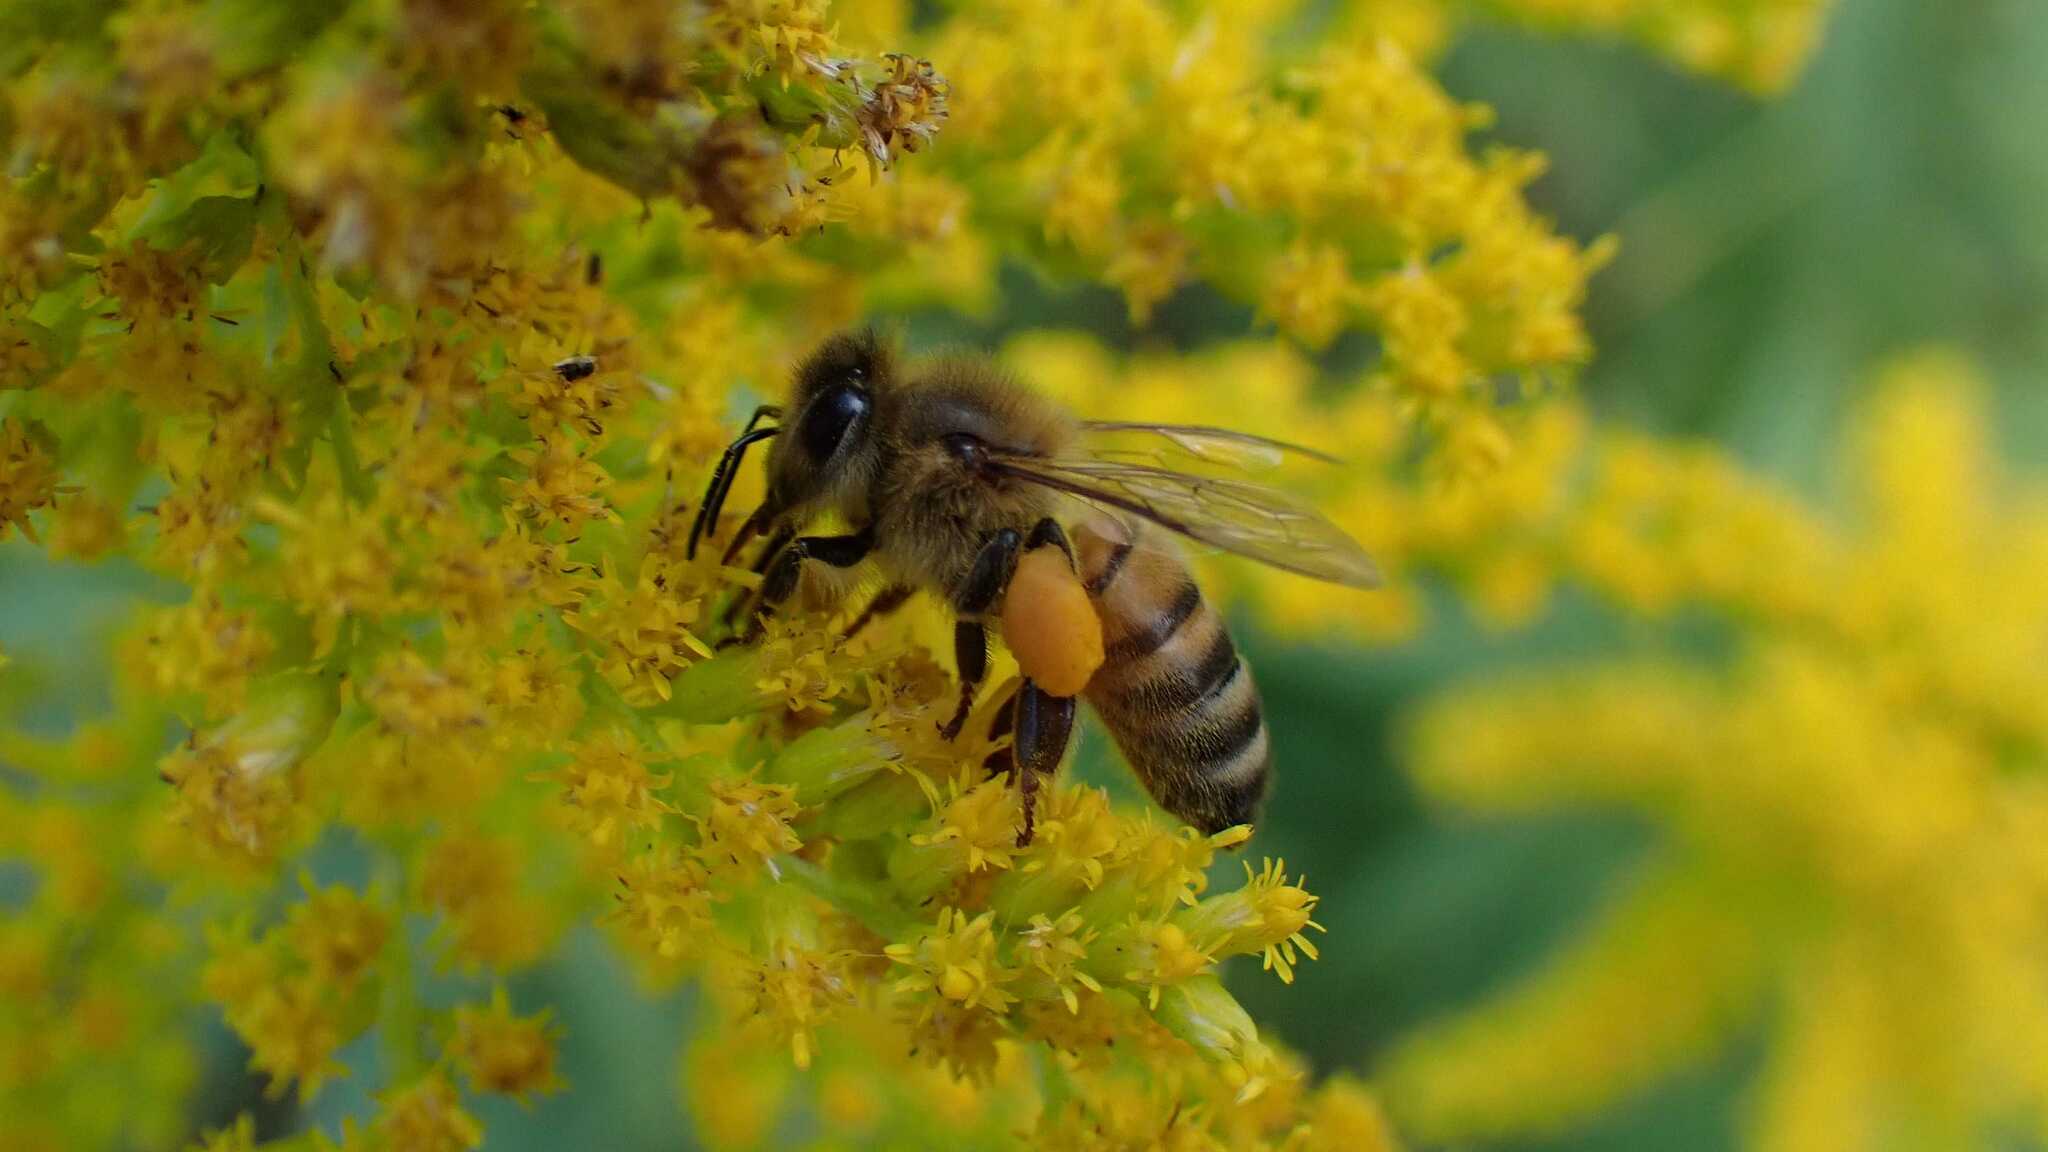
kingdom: Animalia
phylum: Arthropoda
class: Insecta
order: Hymenoptera
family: Apidae
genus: Apis
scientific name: Apis mellifera
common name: Honey bee
